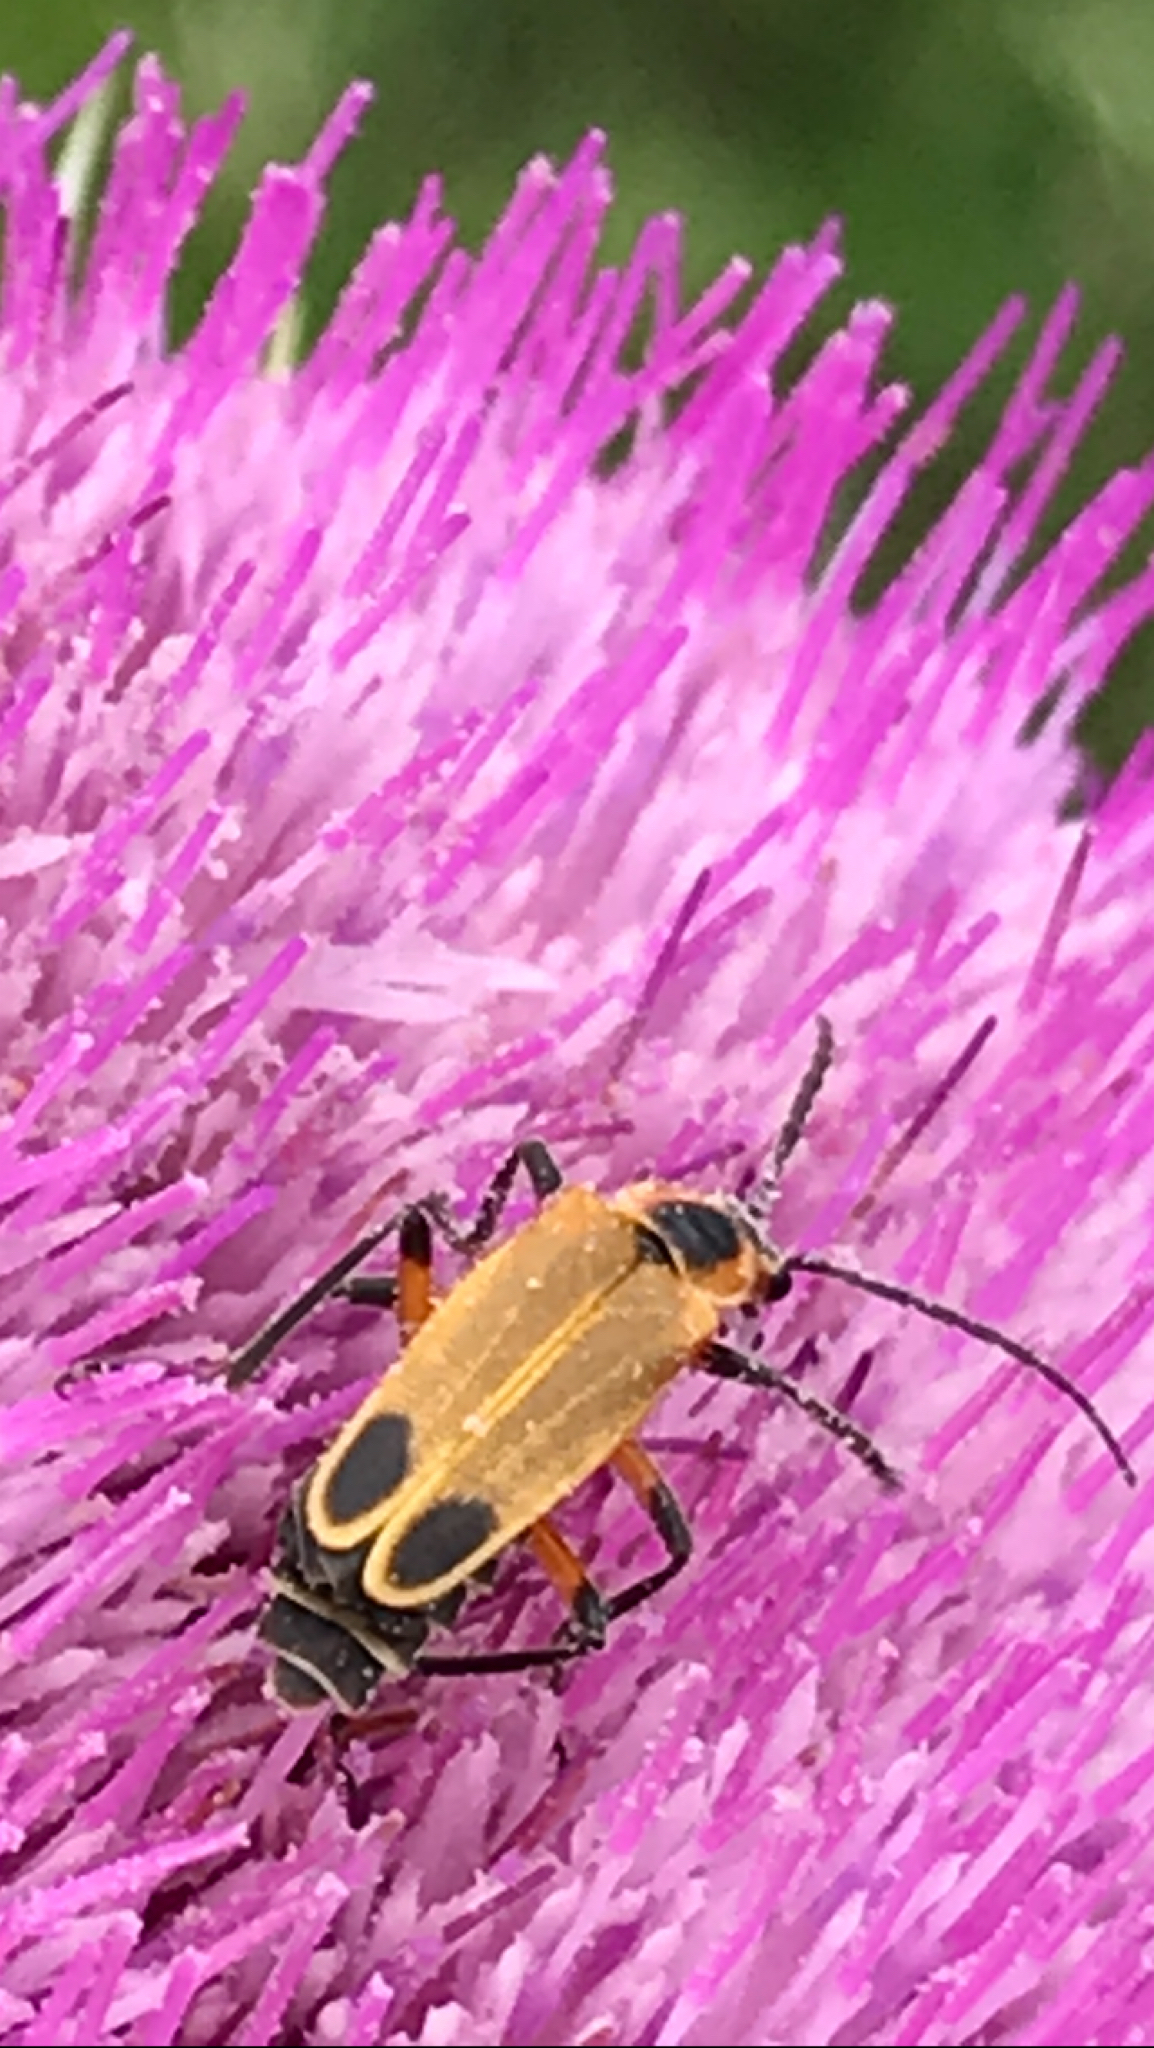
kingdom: Animalia
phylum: Arthropoda
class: Insecta
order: Coleoptera
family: Cantharidae
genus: Chauliognathus
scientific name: Chauliognathus marginatus
